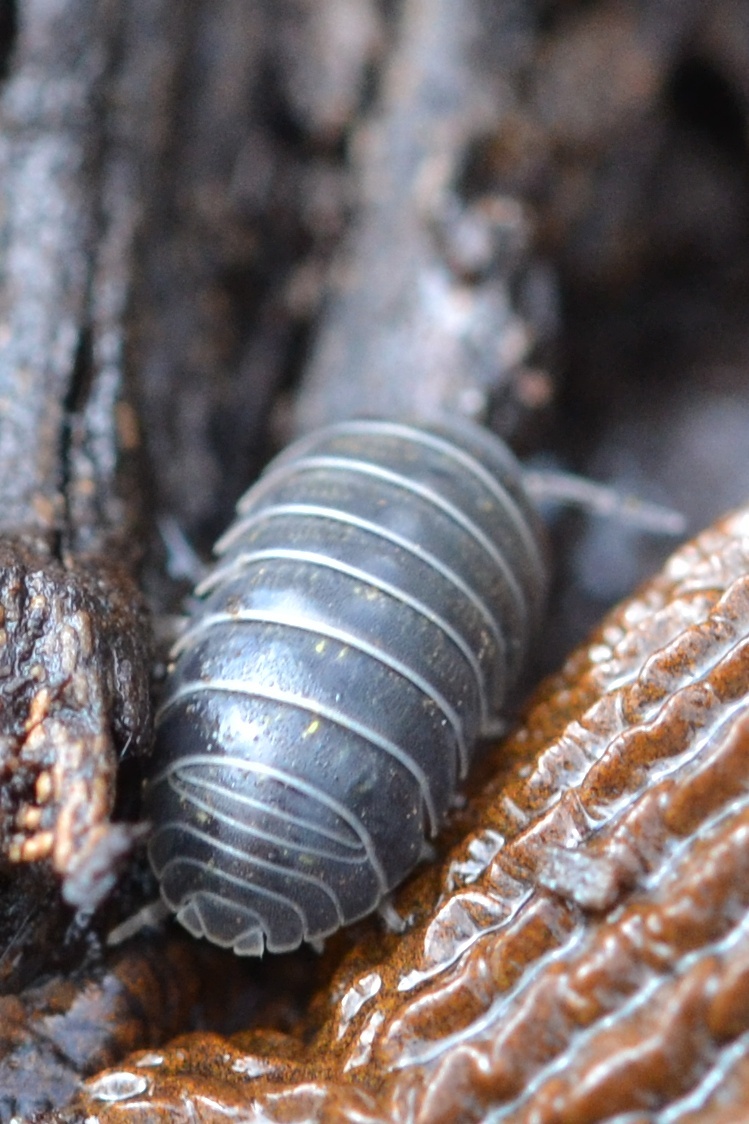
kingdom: Animalia
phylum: Arthropoda
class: Malacostraca
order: Isopoda
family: Armadillidiidae
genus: Armadillidium
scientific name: Armadillidium vulgare
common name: Common pill woodlouse
